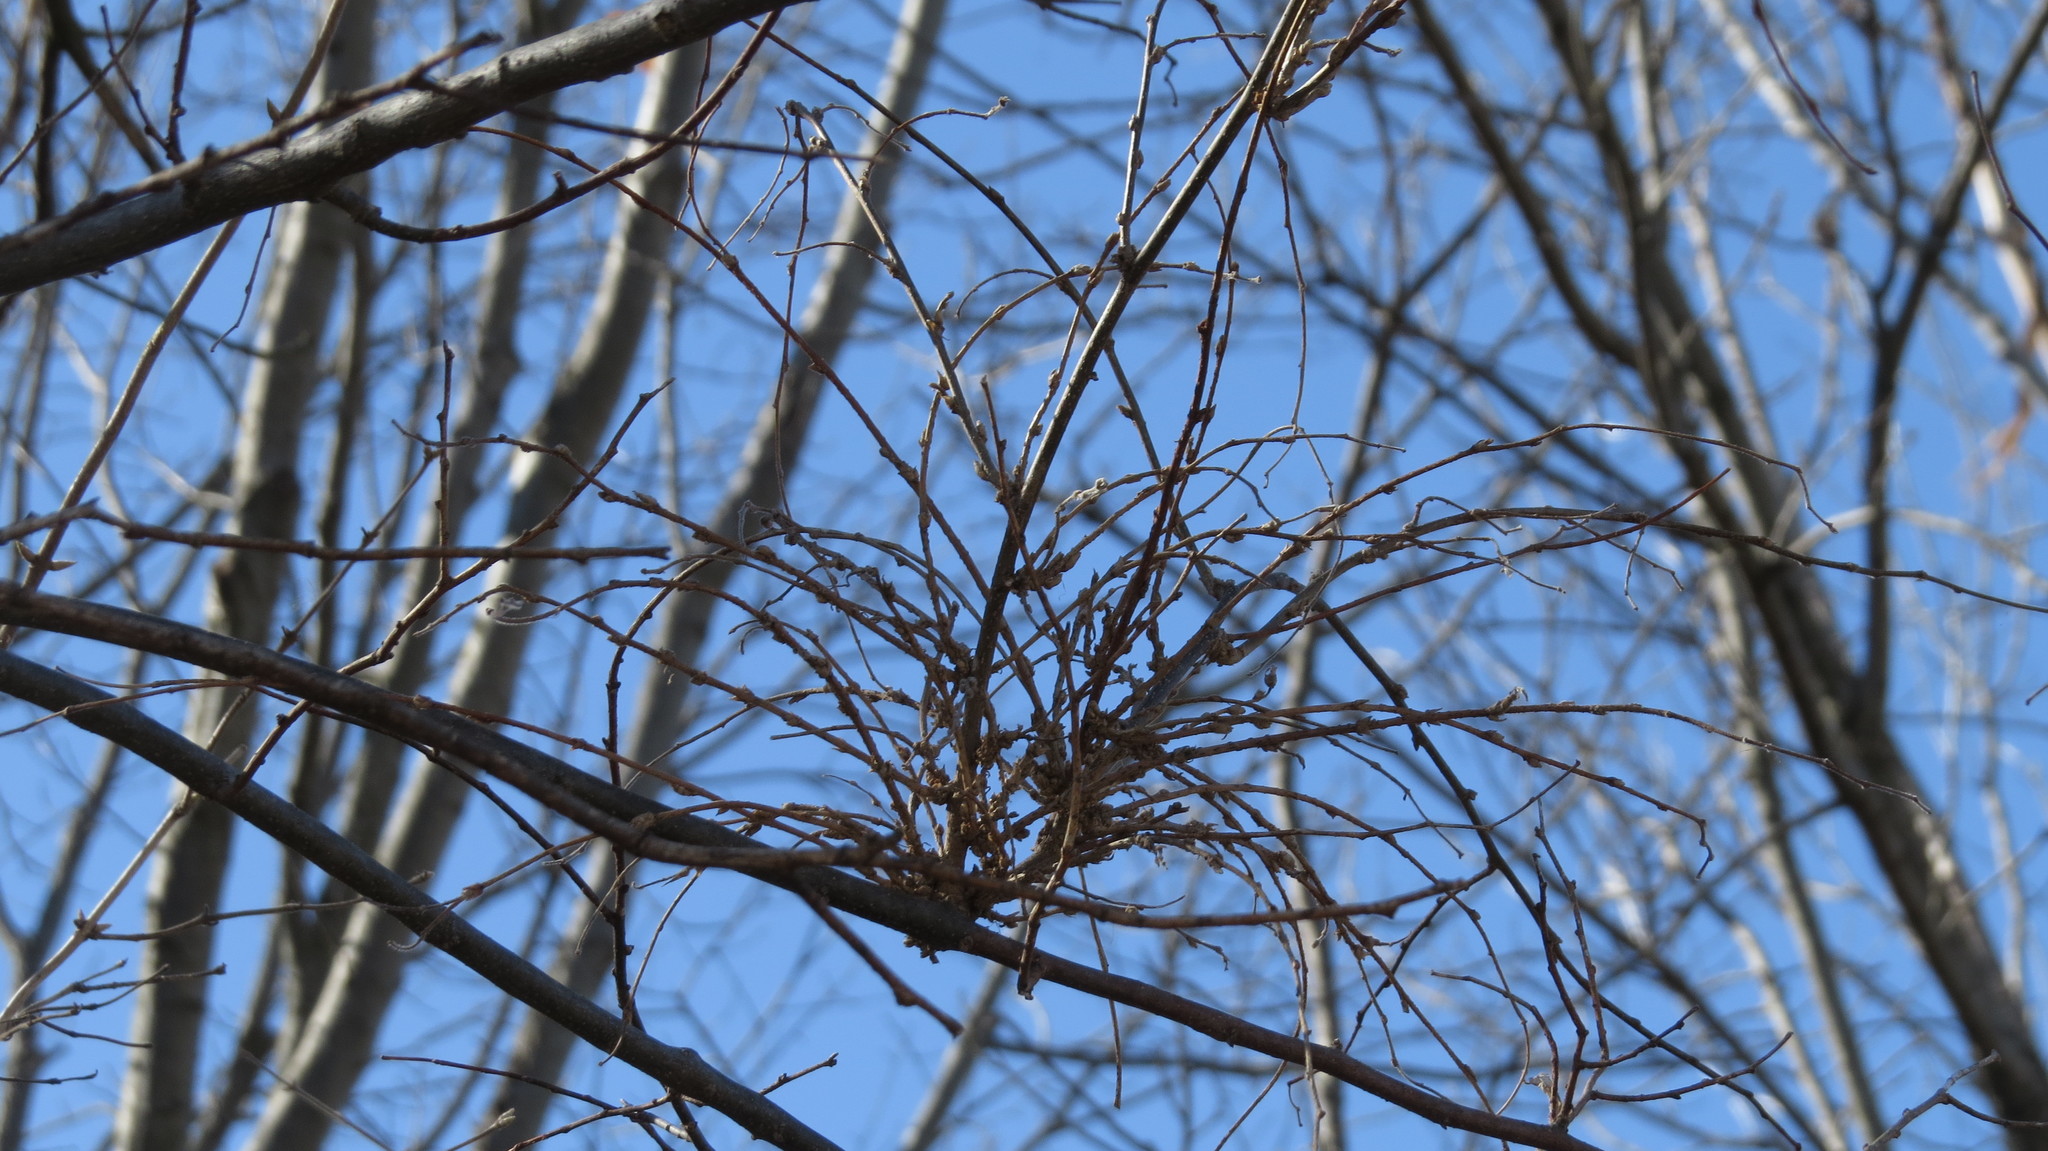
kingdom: Animalia
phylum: Arthropoda
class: Arachnida
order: Trombidiformes
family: Eriophyidae
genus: Aceria
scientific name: Aceria
